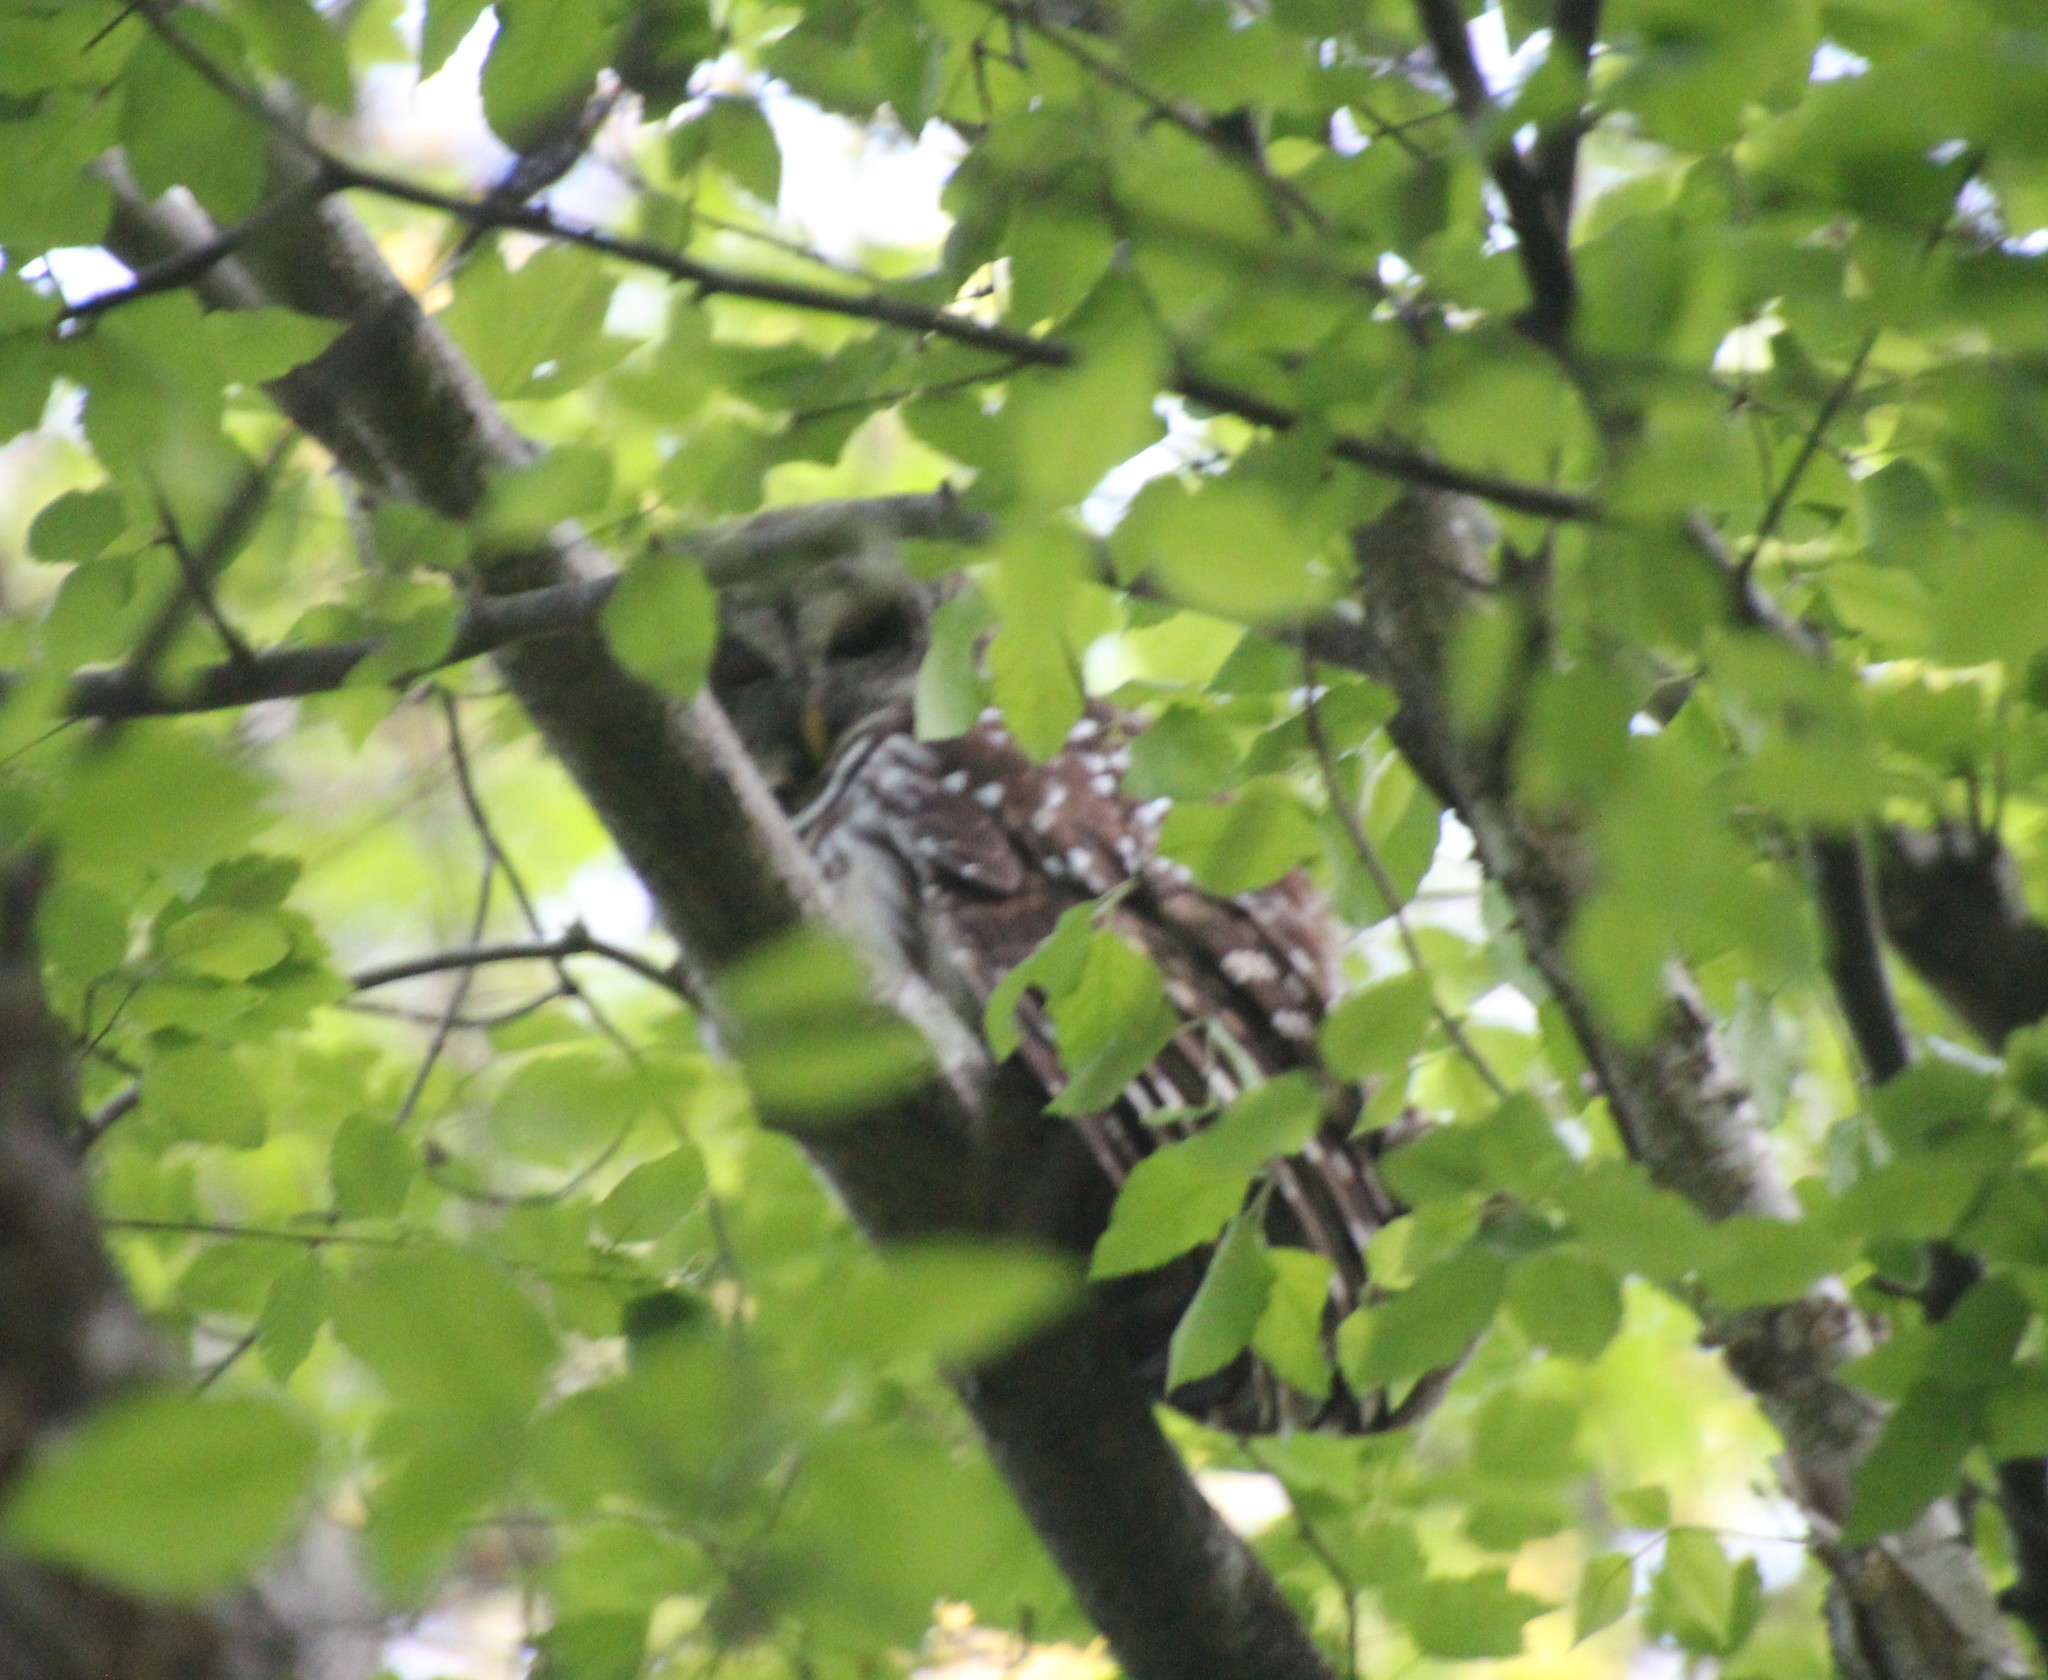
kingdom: Animalia
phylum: Chordata
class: Aves
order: Strigiformes
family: Strigidae
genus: Strix
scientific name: Strix varia
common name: Barred owl
